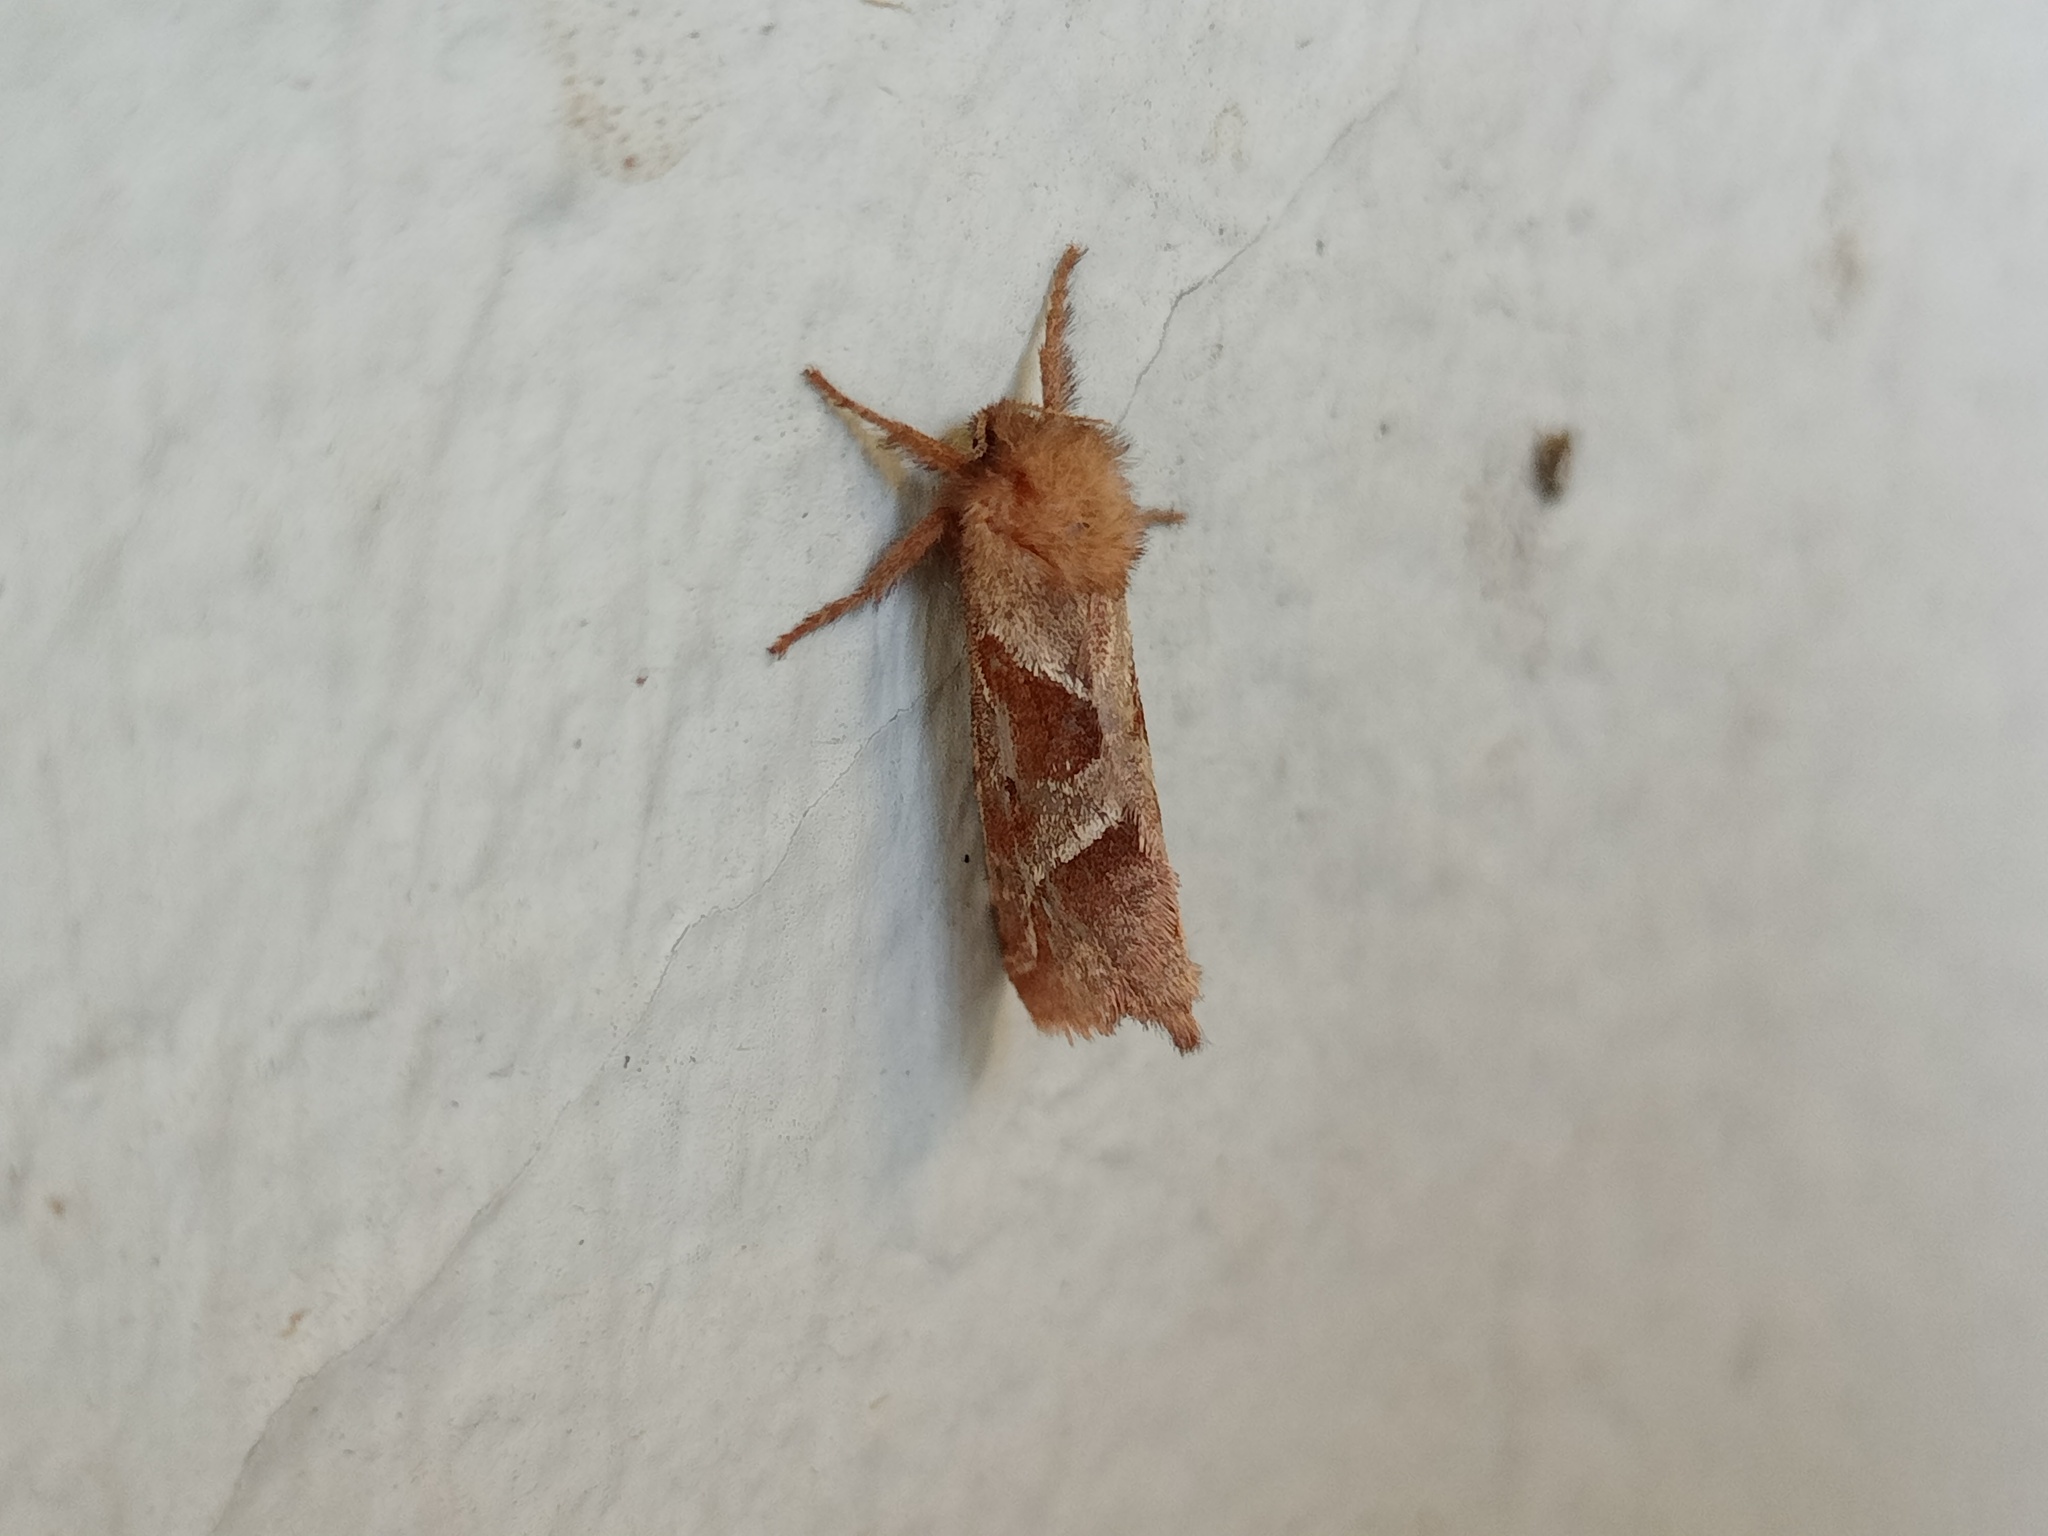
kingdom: Animalia
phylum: Arthropoda
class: Insecta
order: Lepidoptera
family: Hepialidae
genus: Triodia
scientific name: Triodia sylvina
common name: Orange swift
